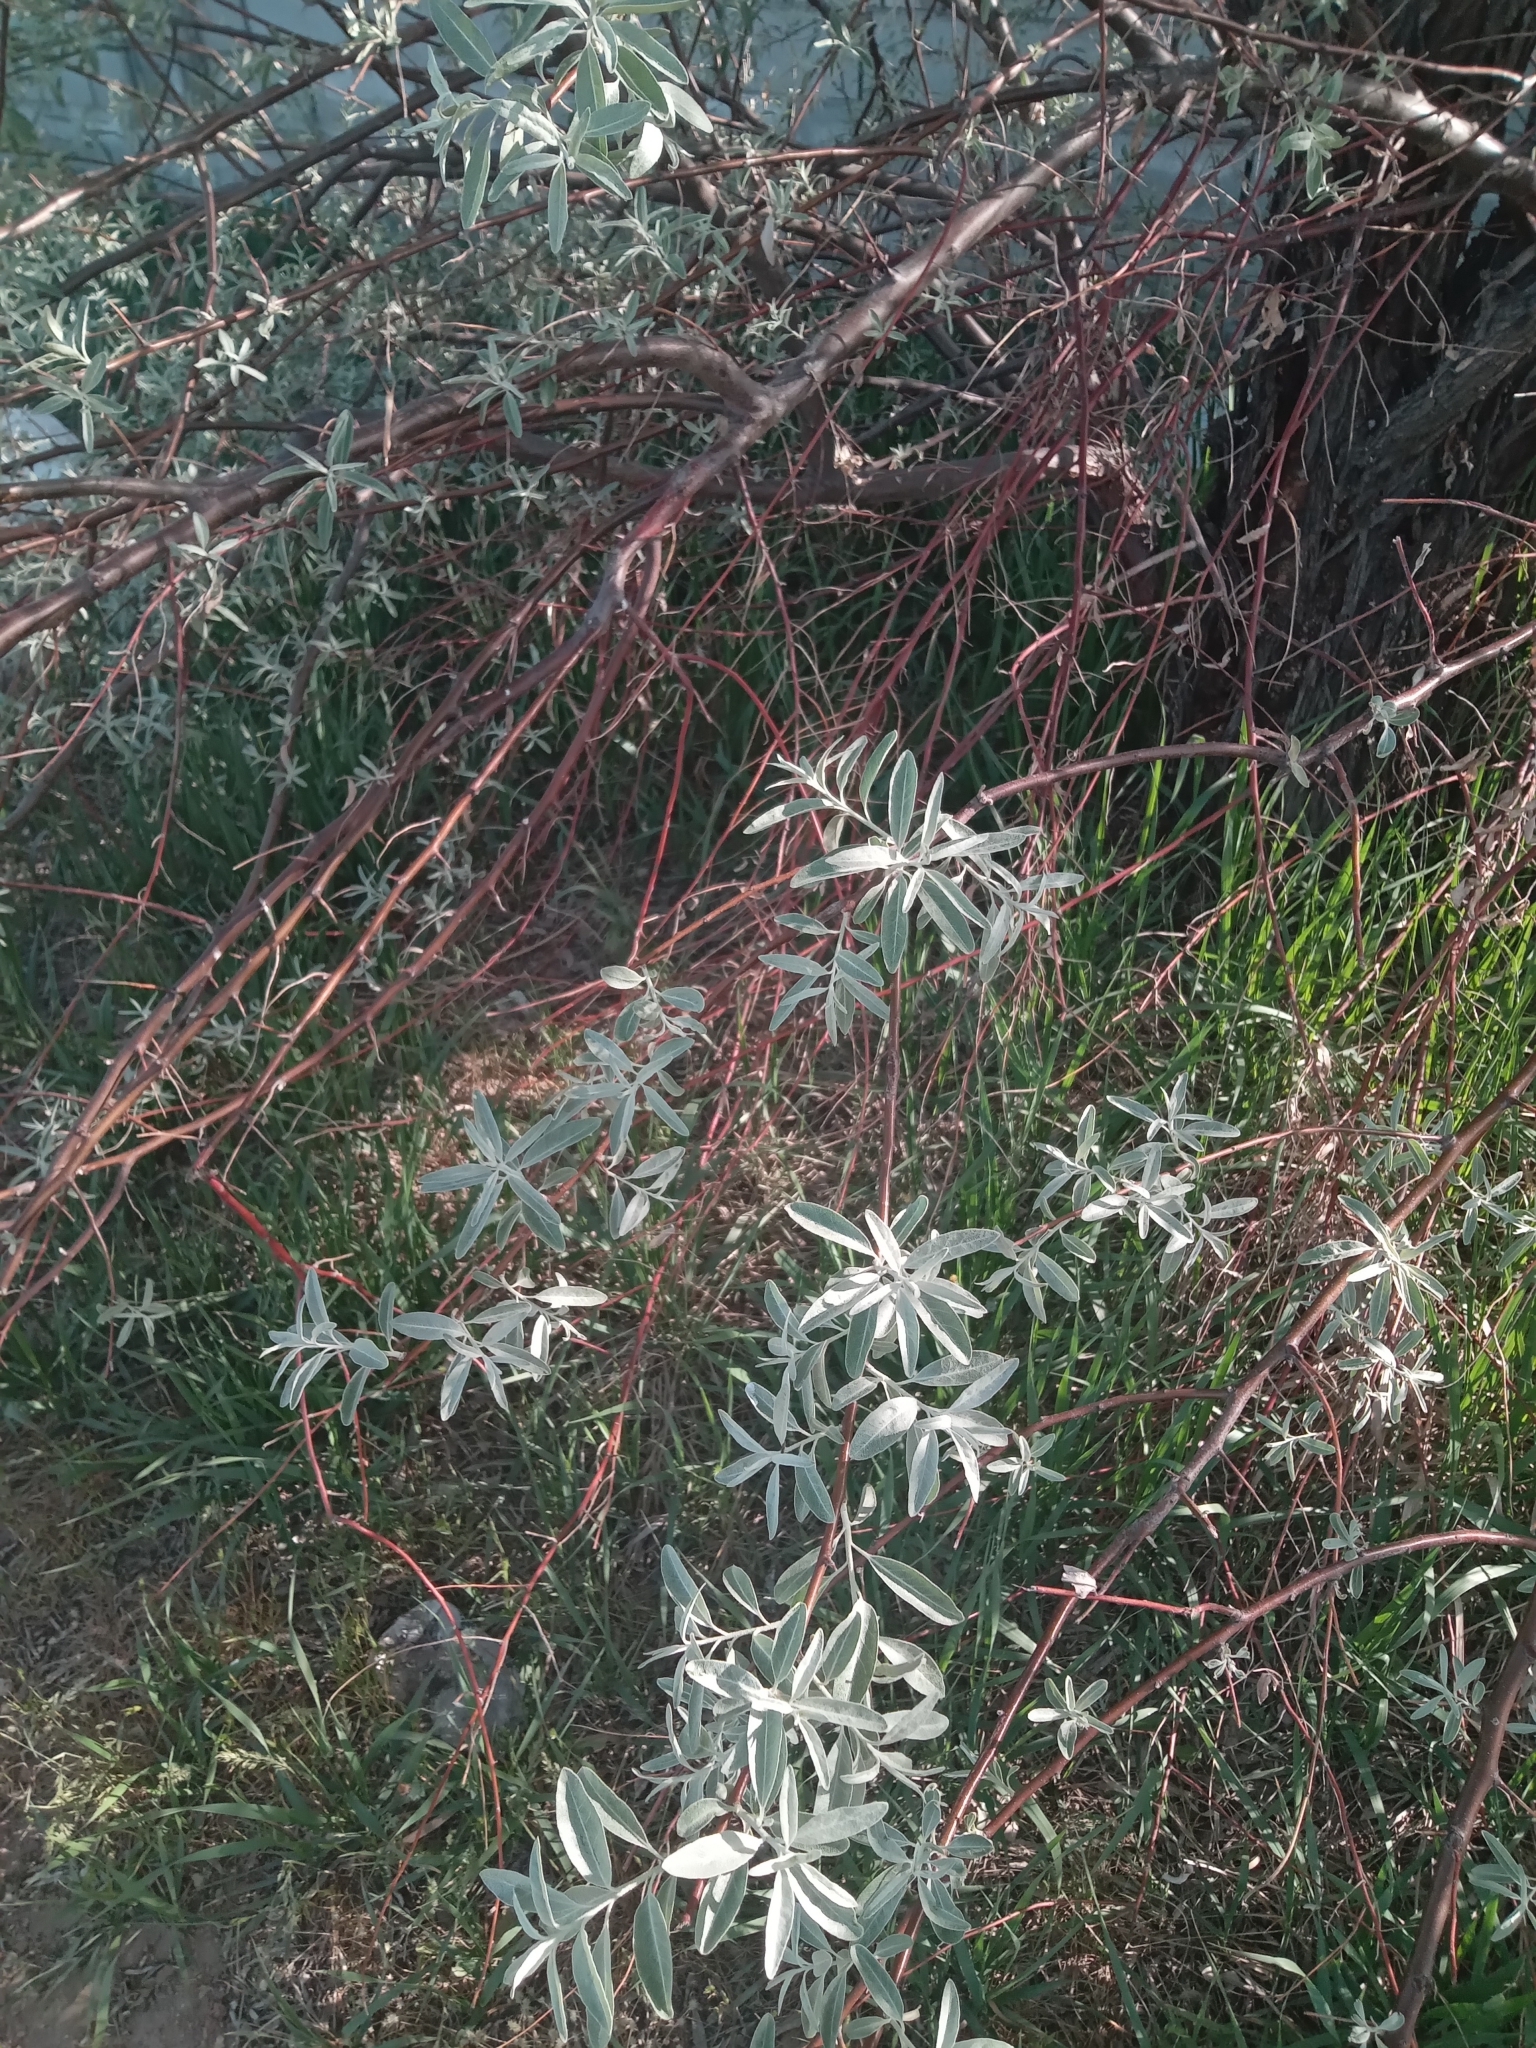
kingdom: Plantae
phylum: Tracheophyta
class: Magnoliopsida
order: Rosales
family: Elaeagnaceae
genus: Elaeagnus
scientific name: Elaeagnus angustifolia
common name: Russian olive
